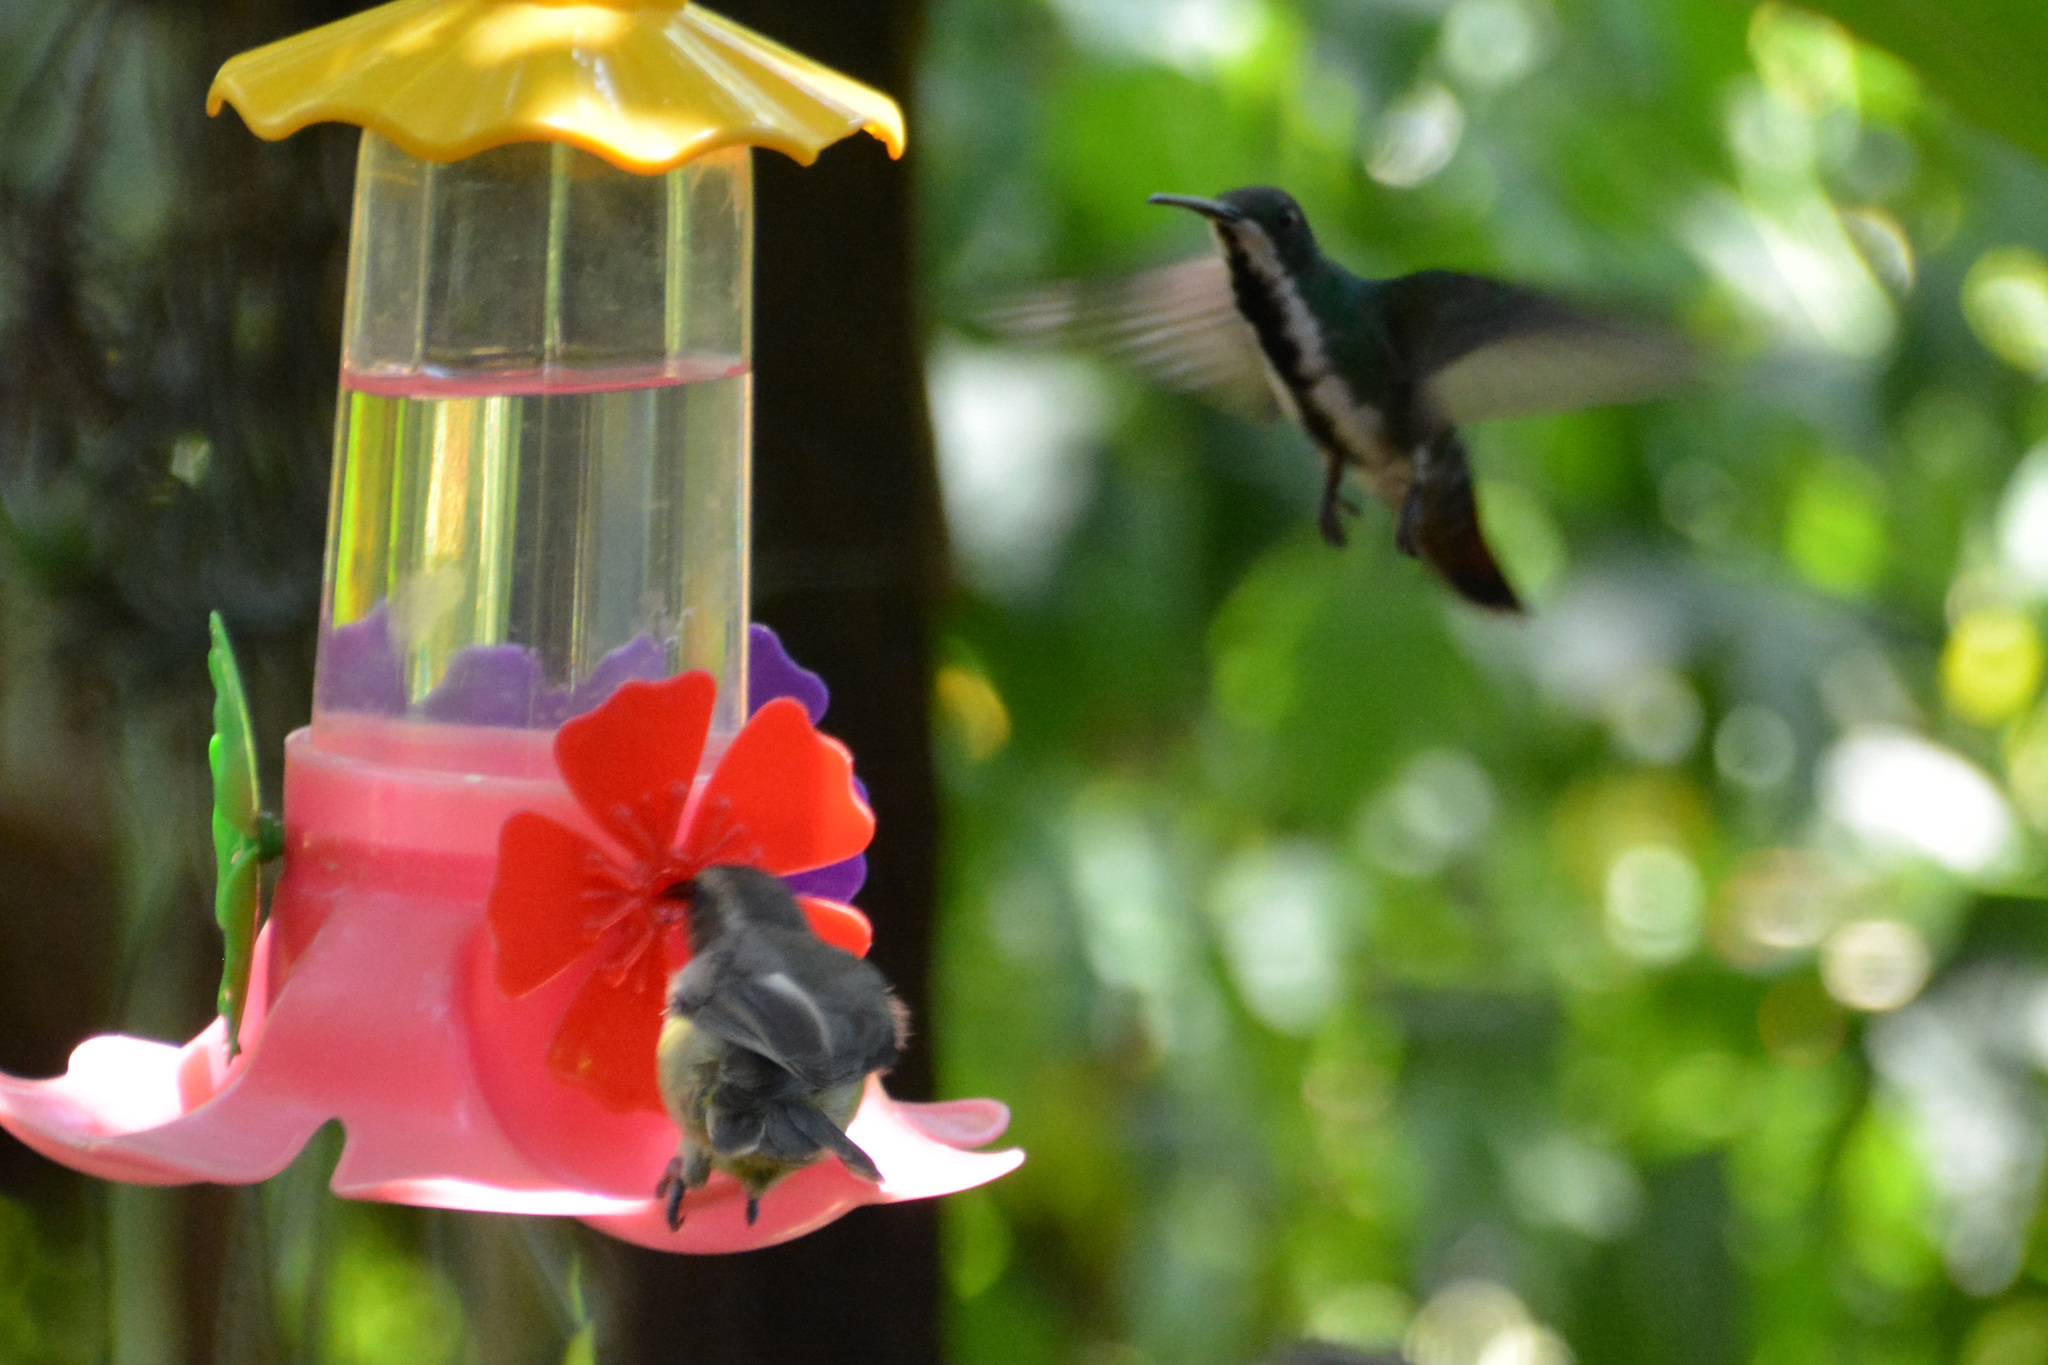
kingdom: Animalia
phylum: Chordata
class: Aves
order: Apodiformes
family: Trochilidae
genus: Anthracothorax
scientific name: Anthracothorax nigricollis
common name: Black-throated mango
